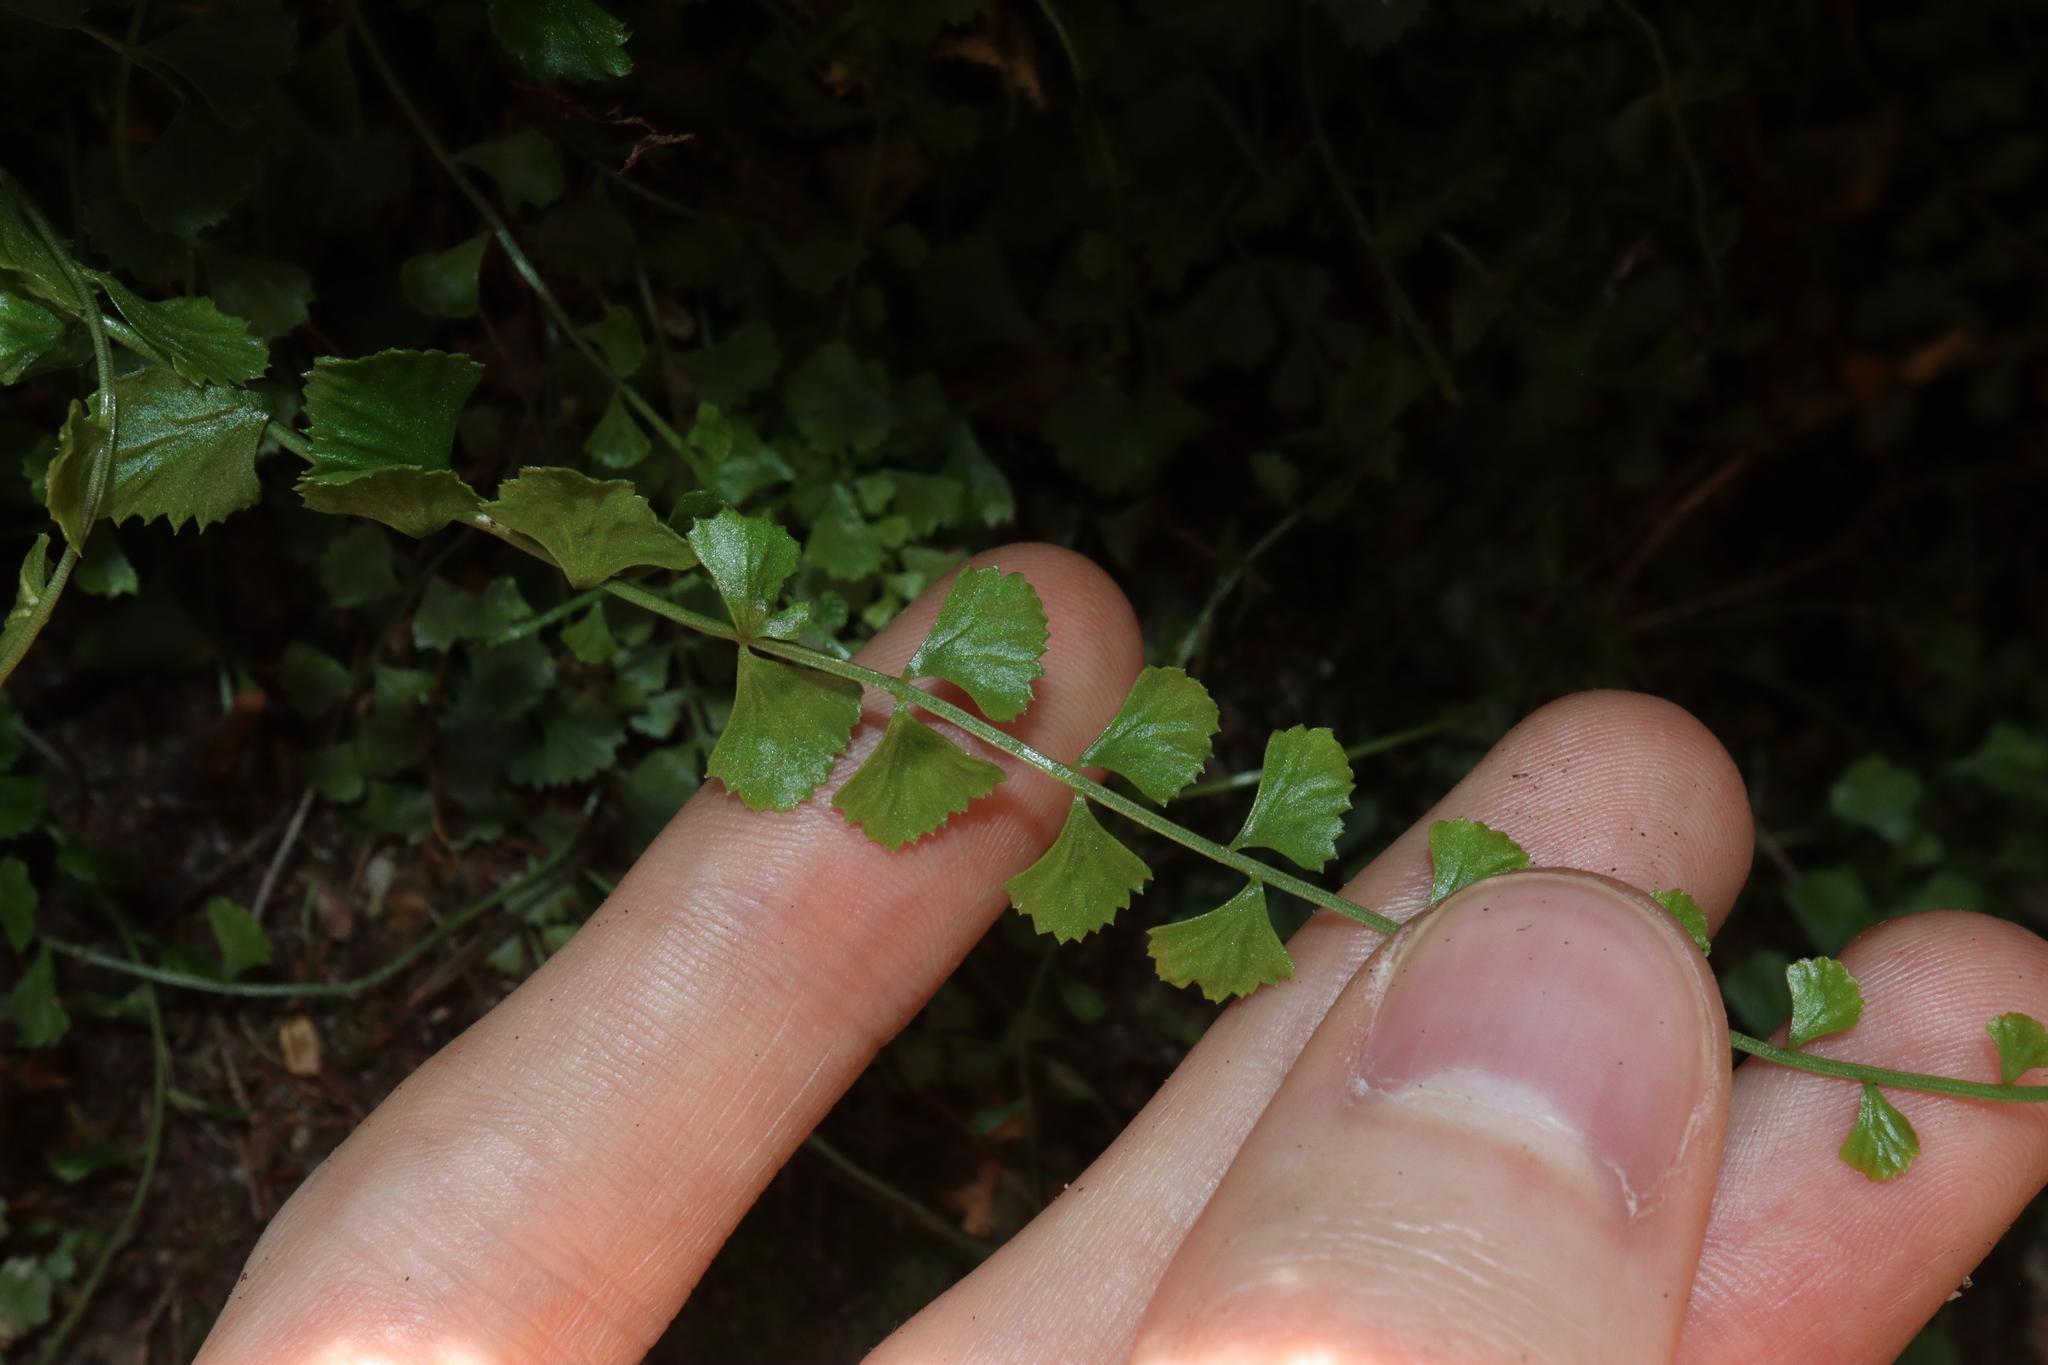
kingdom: Plantae
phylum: Tracheophyta
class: Polypodiopsida
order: Polypodiales
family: Aspleniaceae
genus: Asplenium
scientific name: Asplenium flabellifolium
